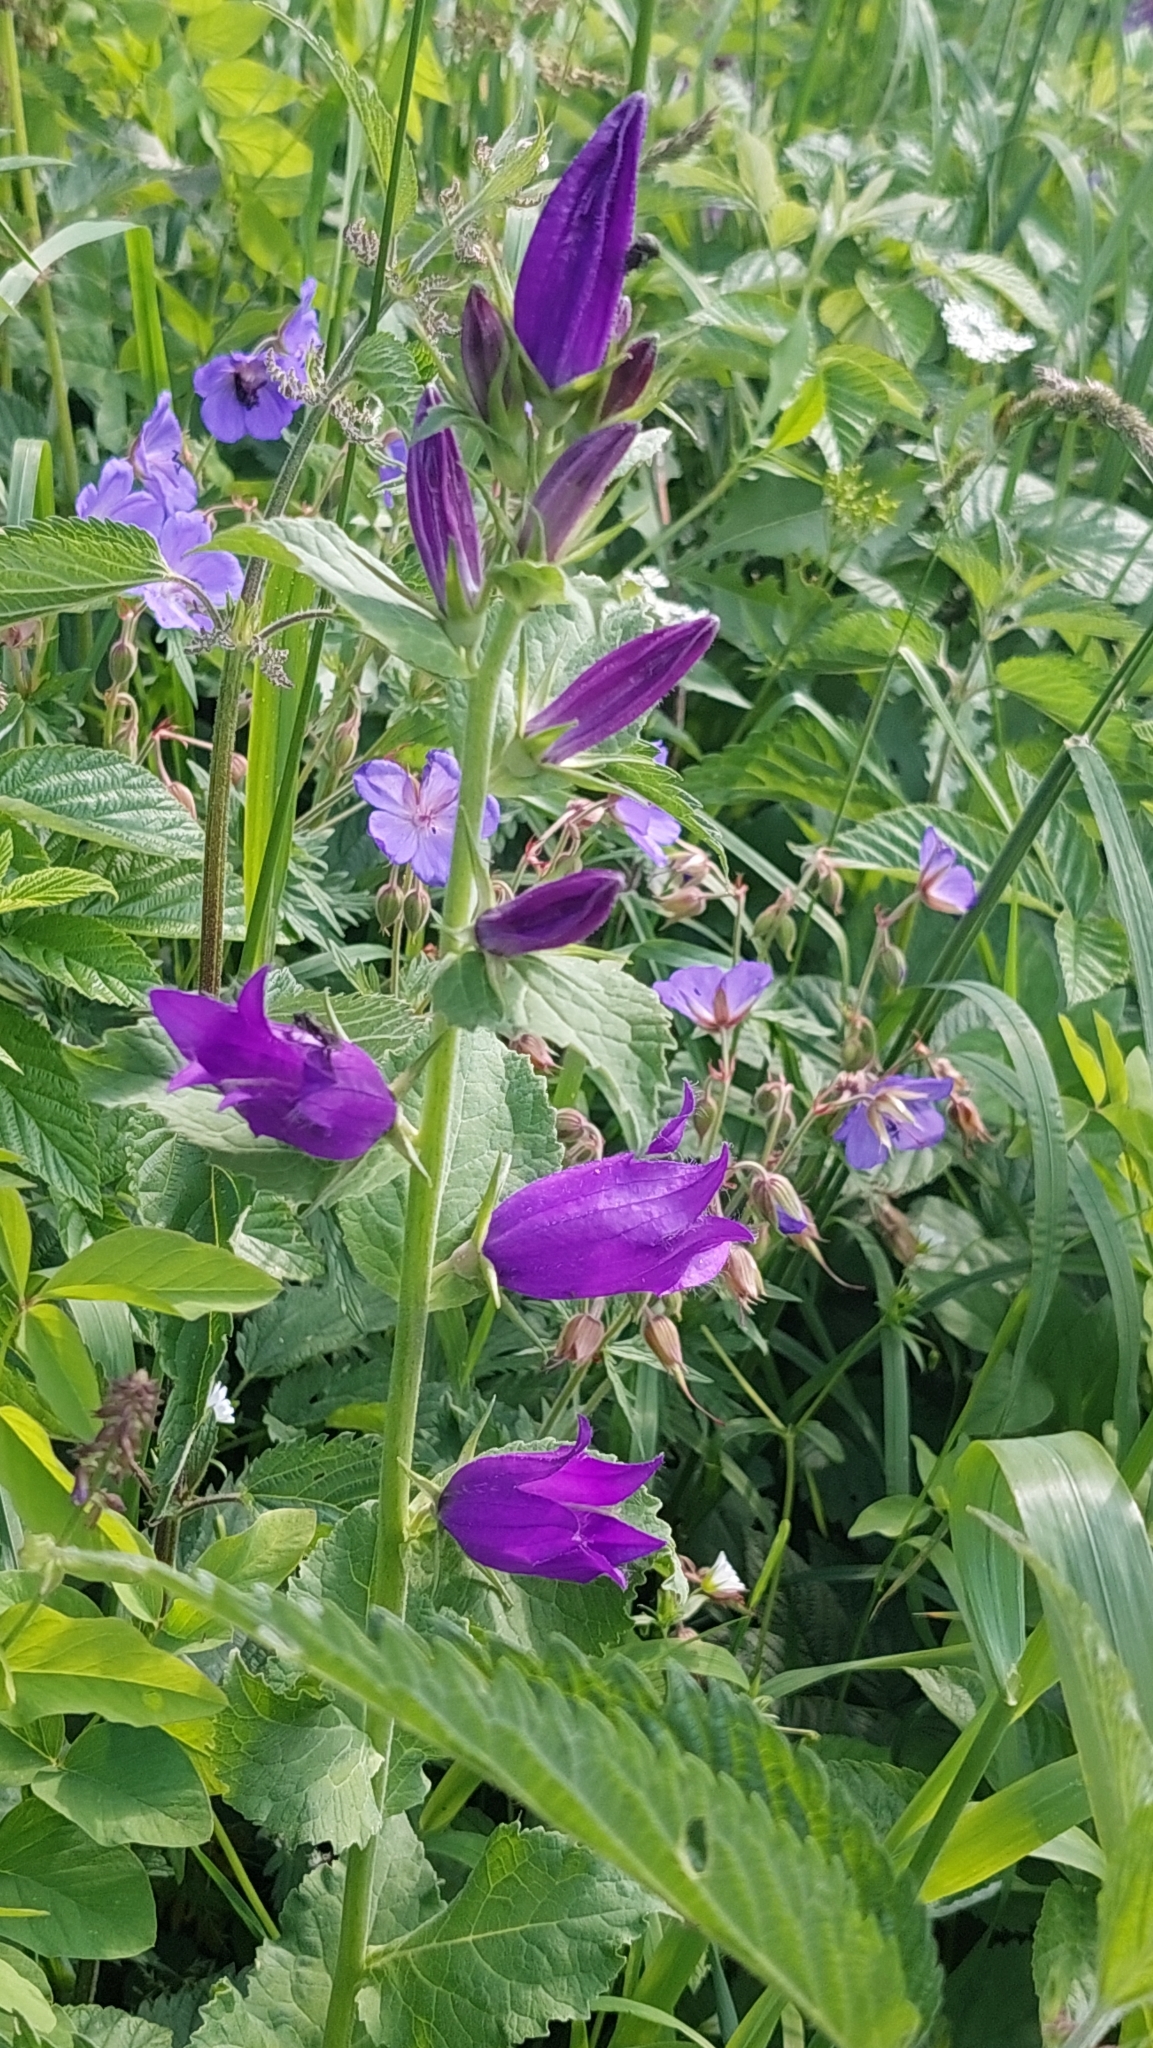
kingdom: Plantae
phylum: Tracheophyta
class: Magnoliopsida
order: Asterales
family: Campanulaceae
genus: Campanula
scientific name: Campanula latifolia
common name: Giant bellflower
